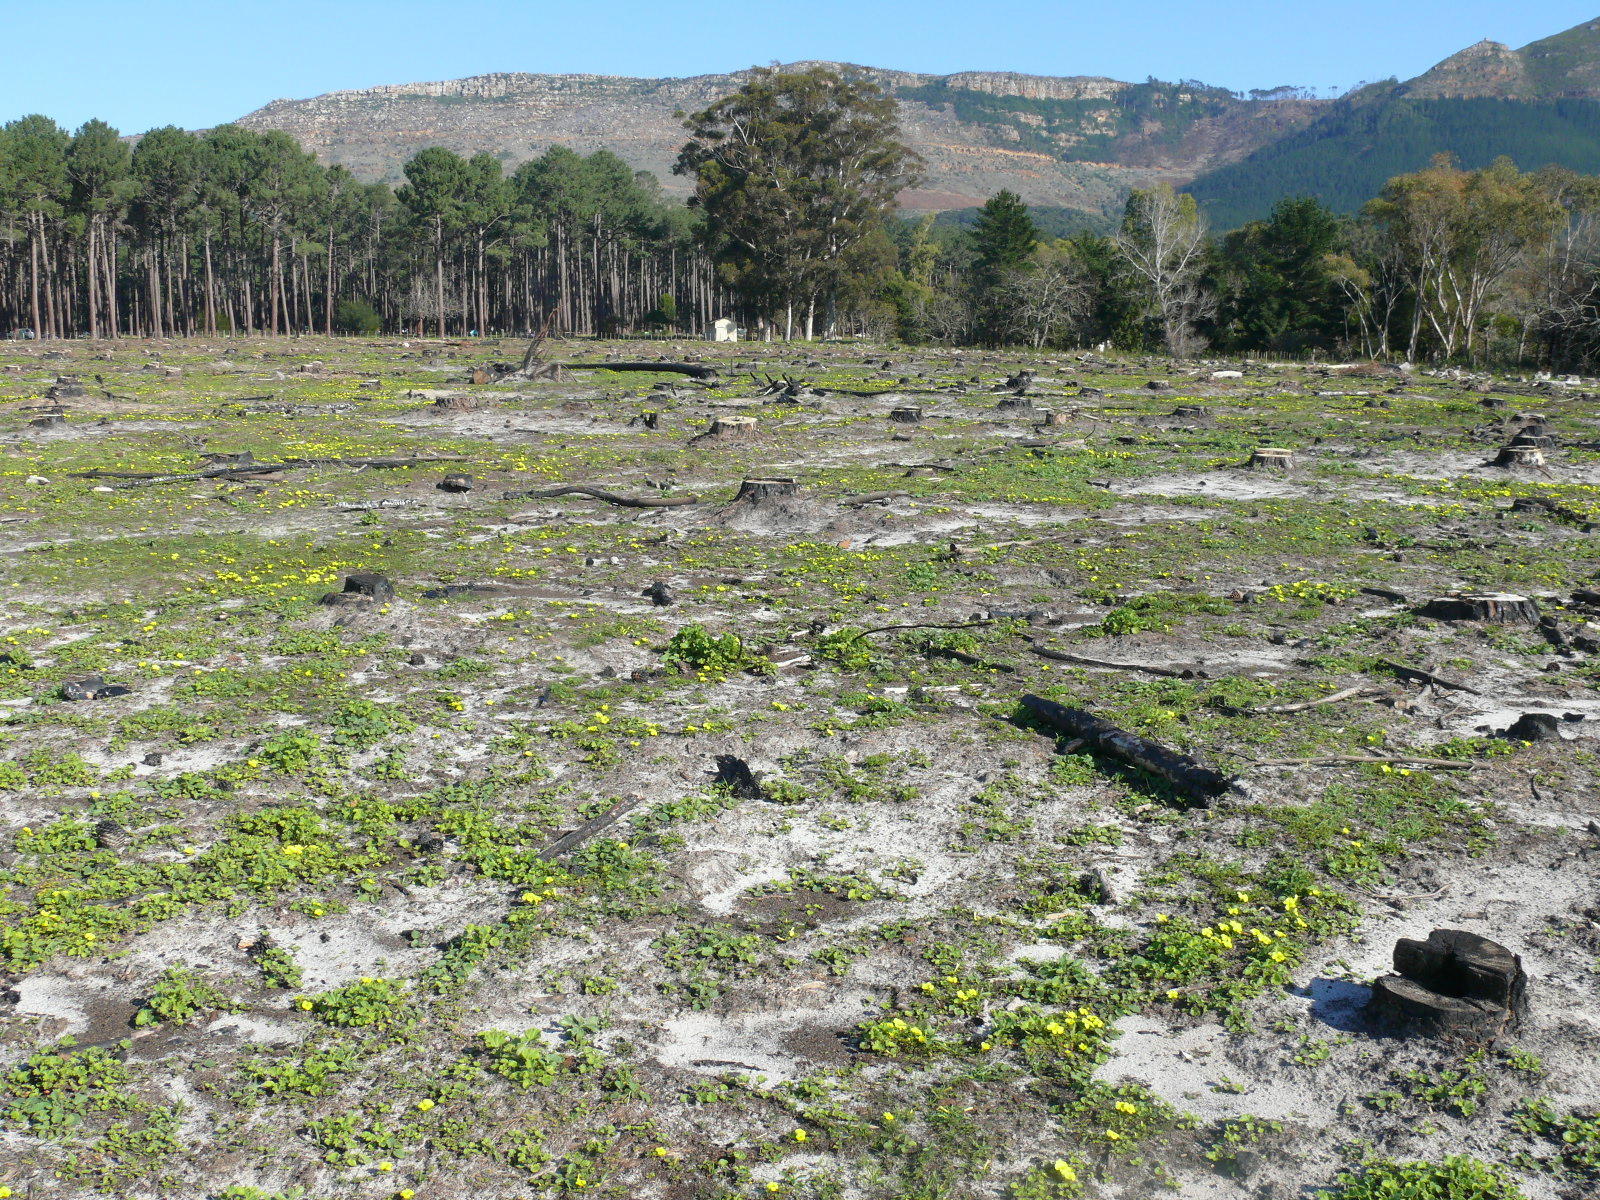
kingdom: Plantae
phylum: Tracheophyta
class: Magnoliopsida
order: Oxalidales
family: Oxalidaceae
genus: Oxalis
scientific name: Oxalis luteola
